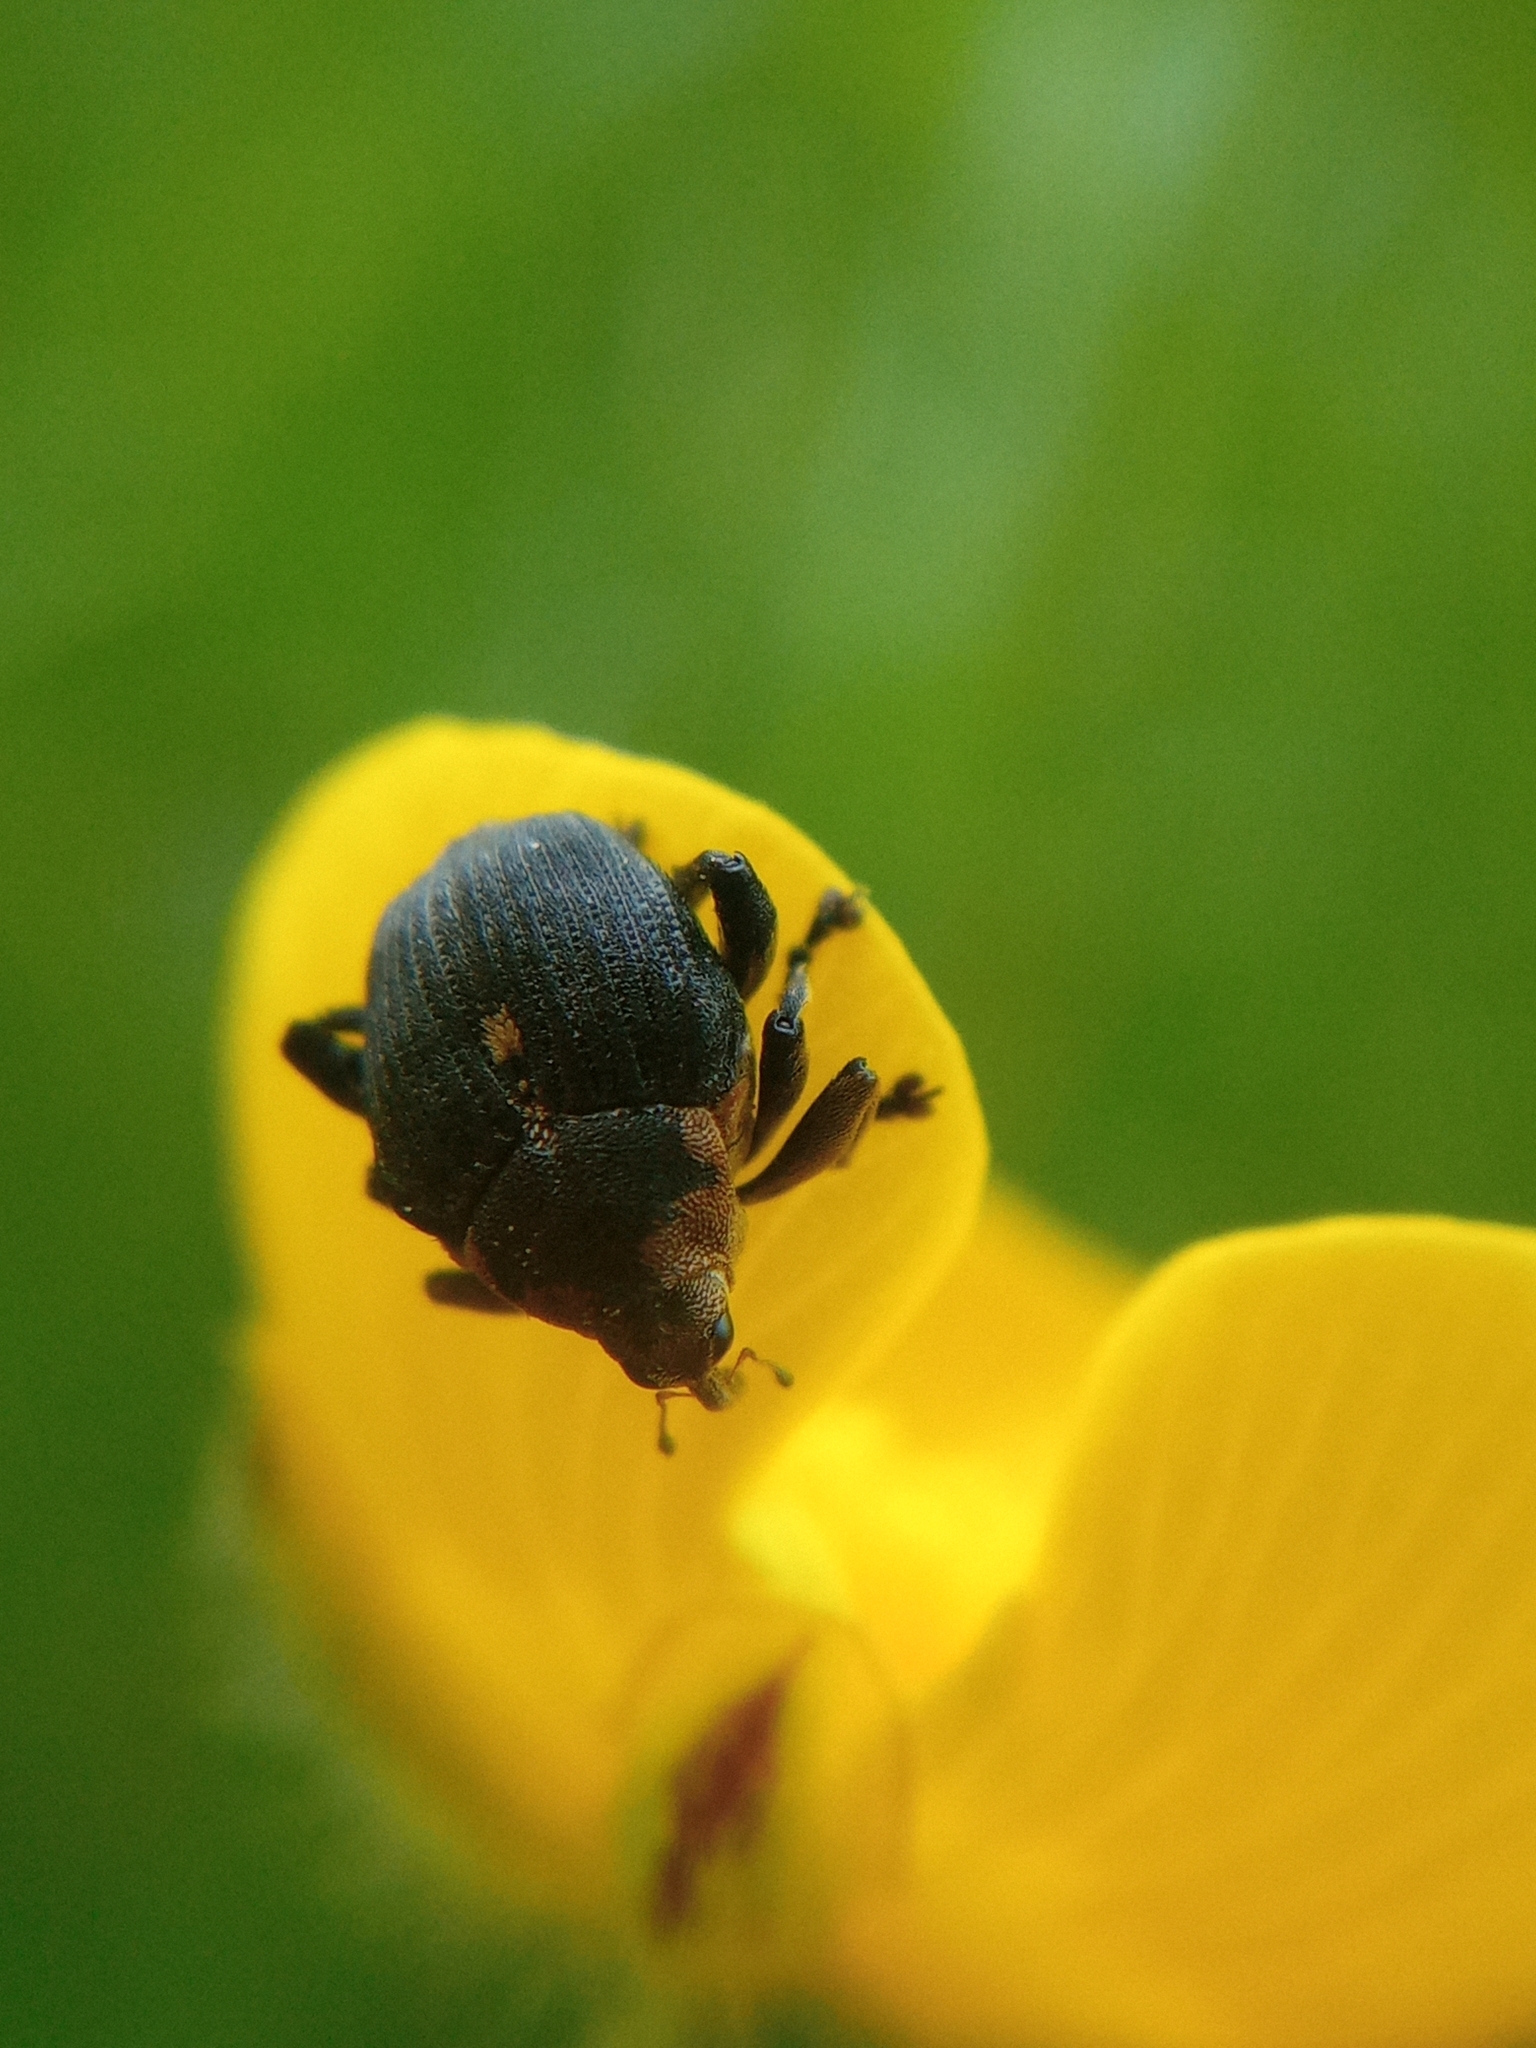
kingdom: Animalia
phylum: Arthropoda
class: Insecta
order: Coleoptera
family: Curculionidae
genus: Mononychus
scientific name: Mononychus punctumalbum
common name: Iris weevil
